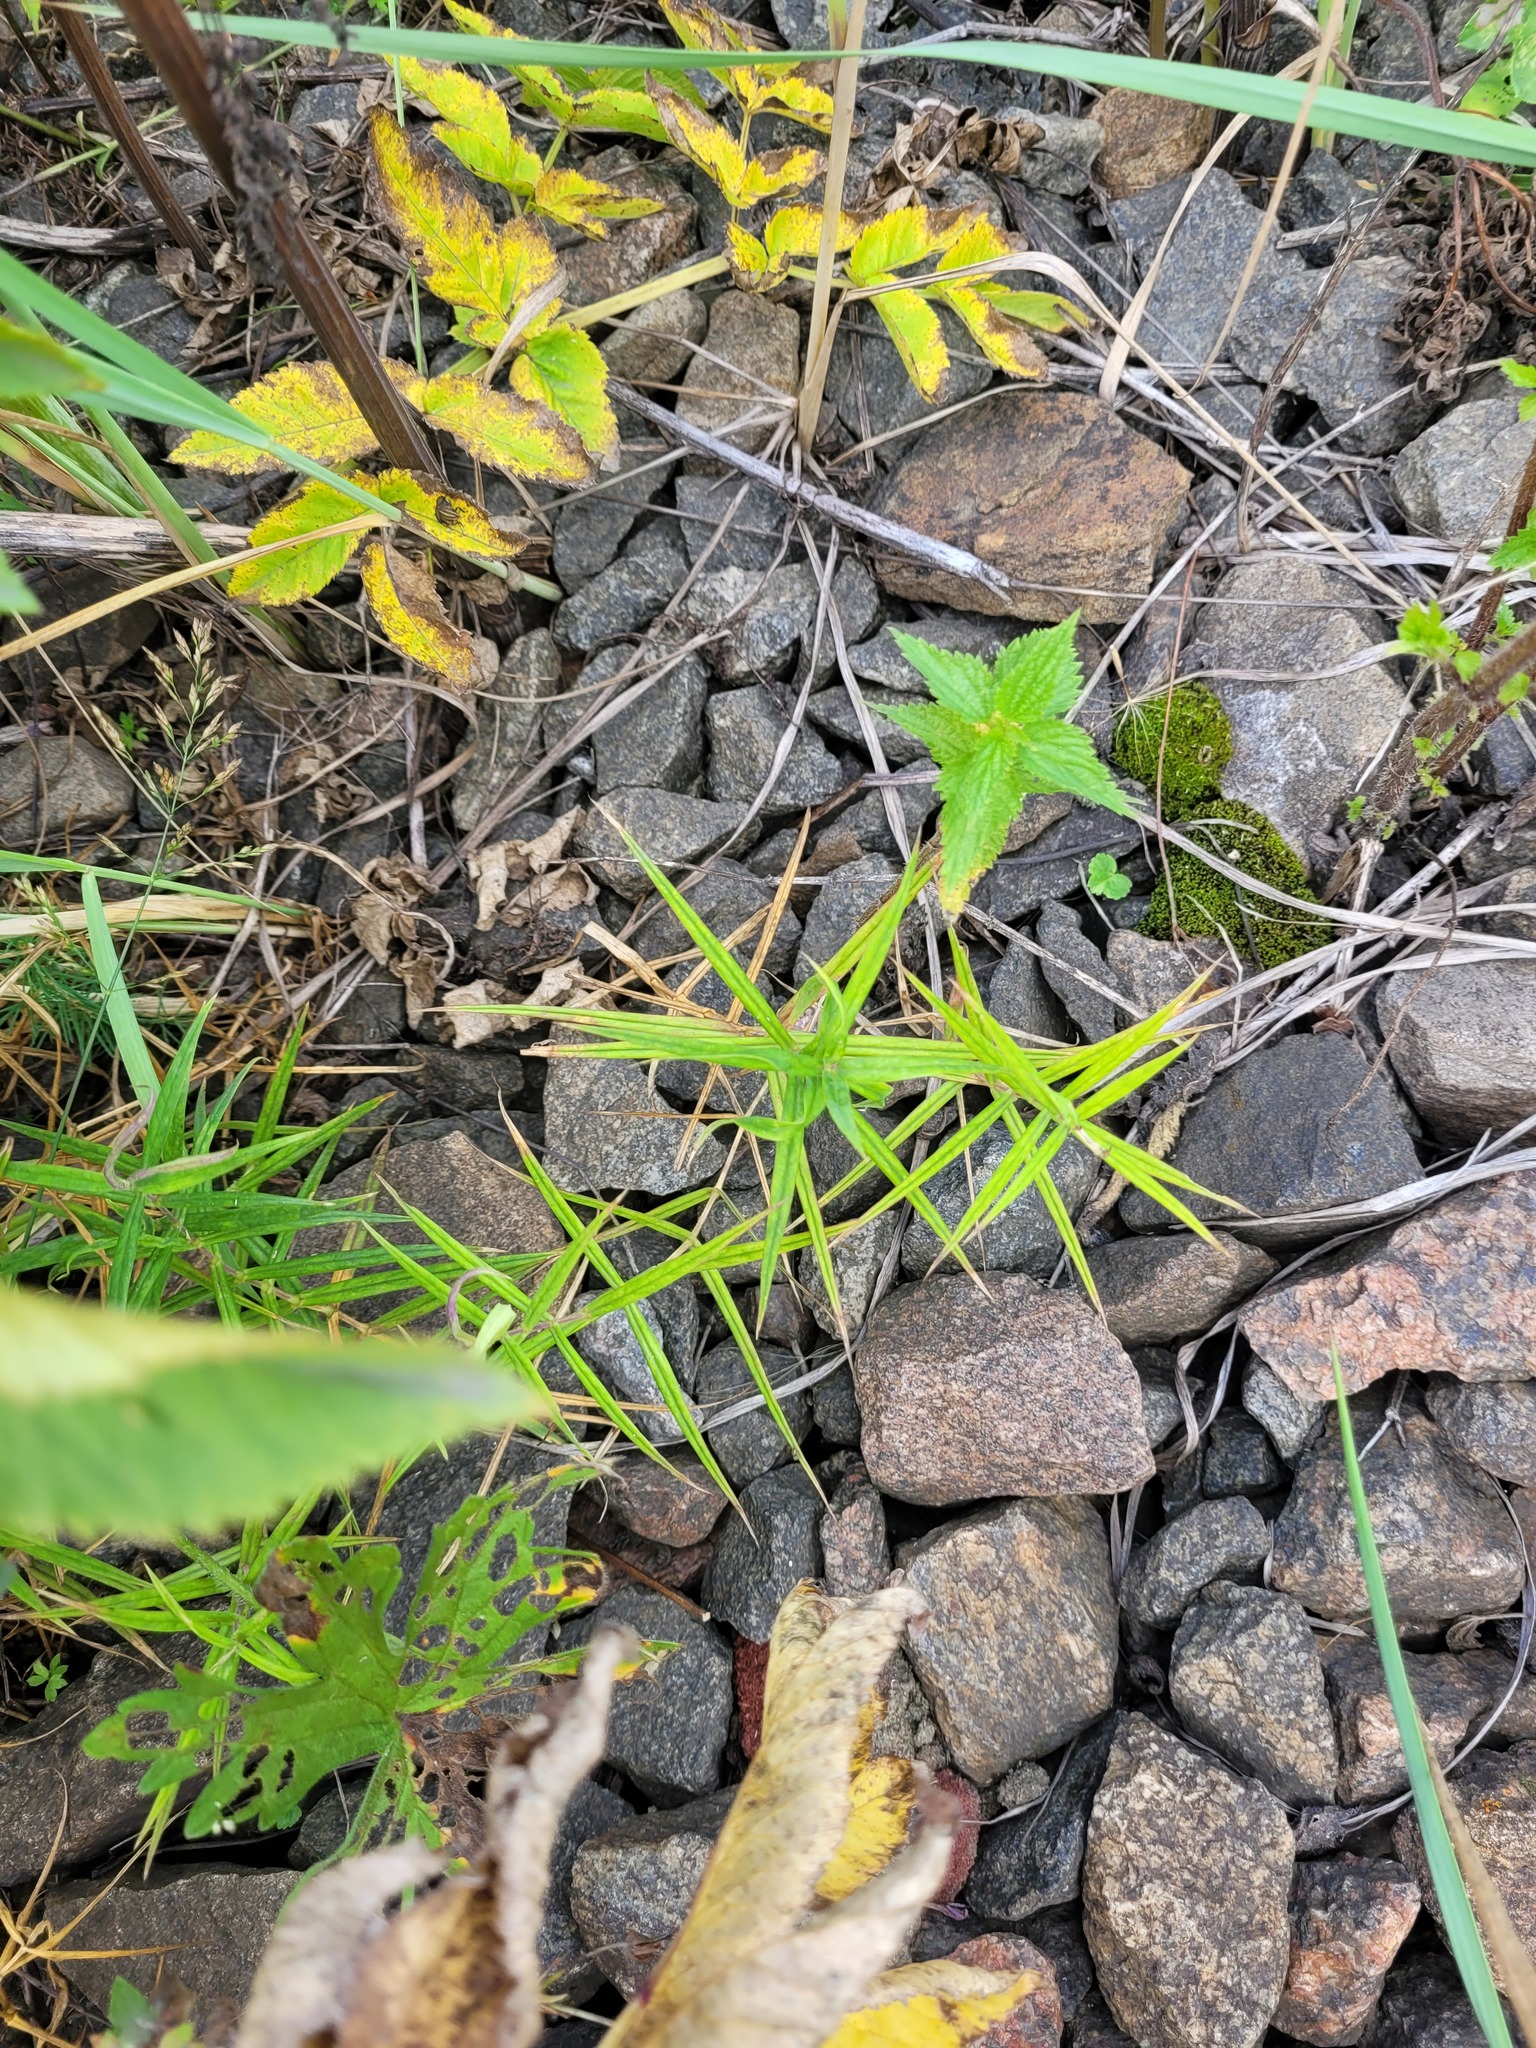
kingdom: Plantae
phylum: Tracheophyta
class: Magnoliopsida
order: Caryophyllales
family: Caryophyllaceae
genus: Rabelera
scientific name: Rabelera holostea
